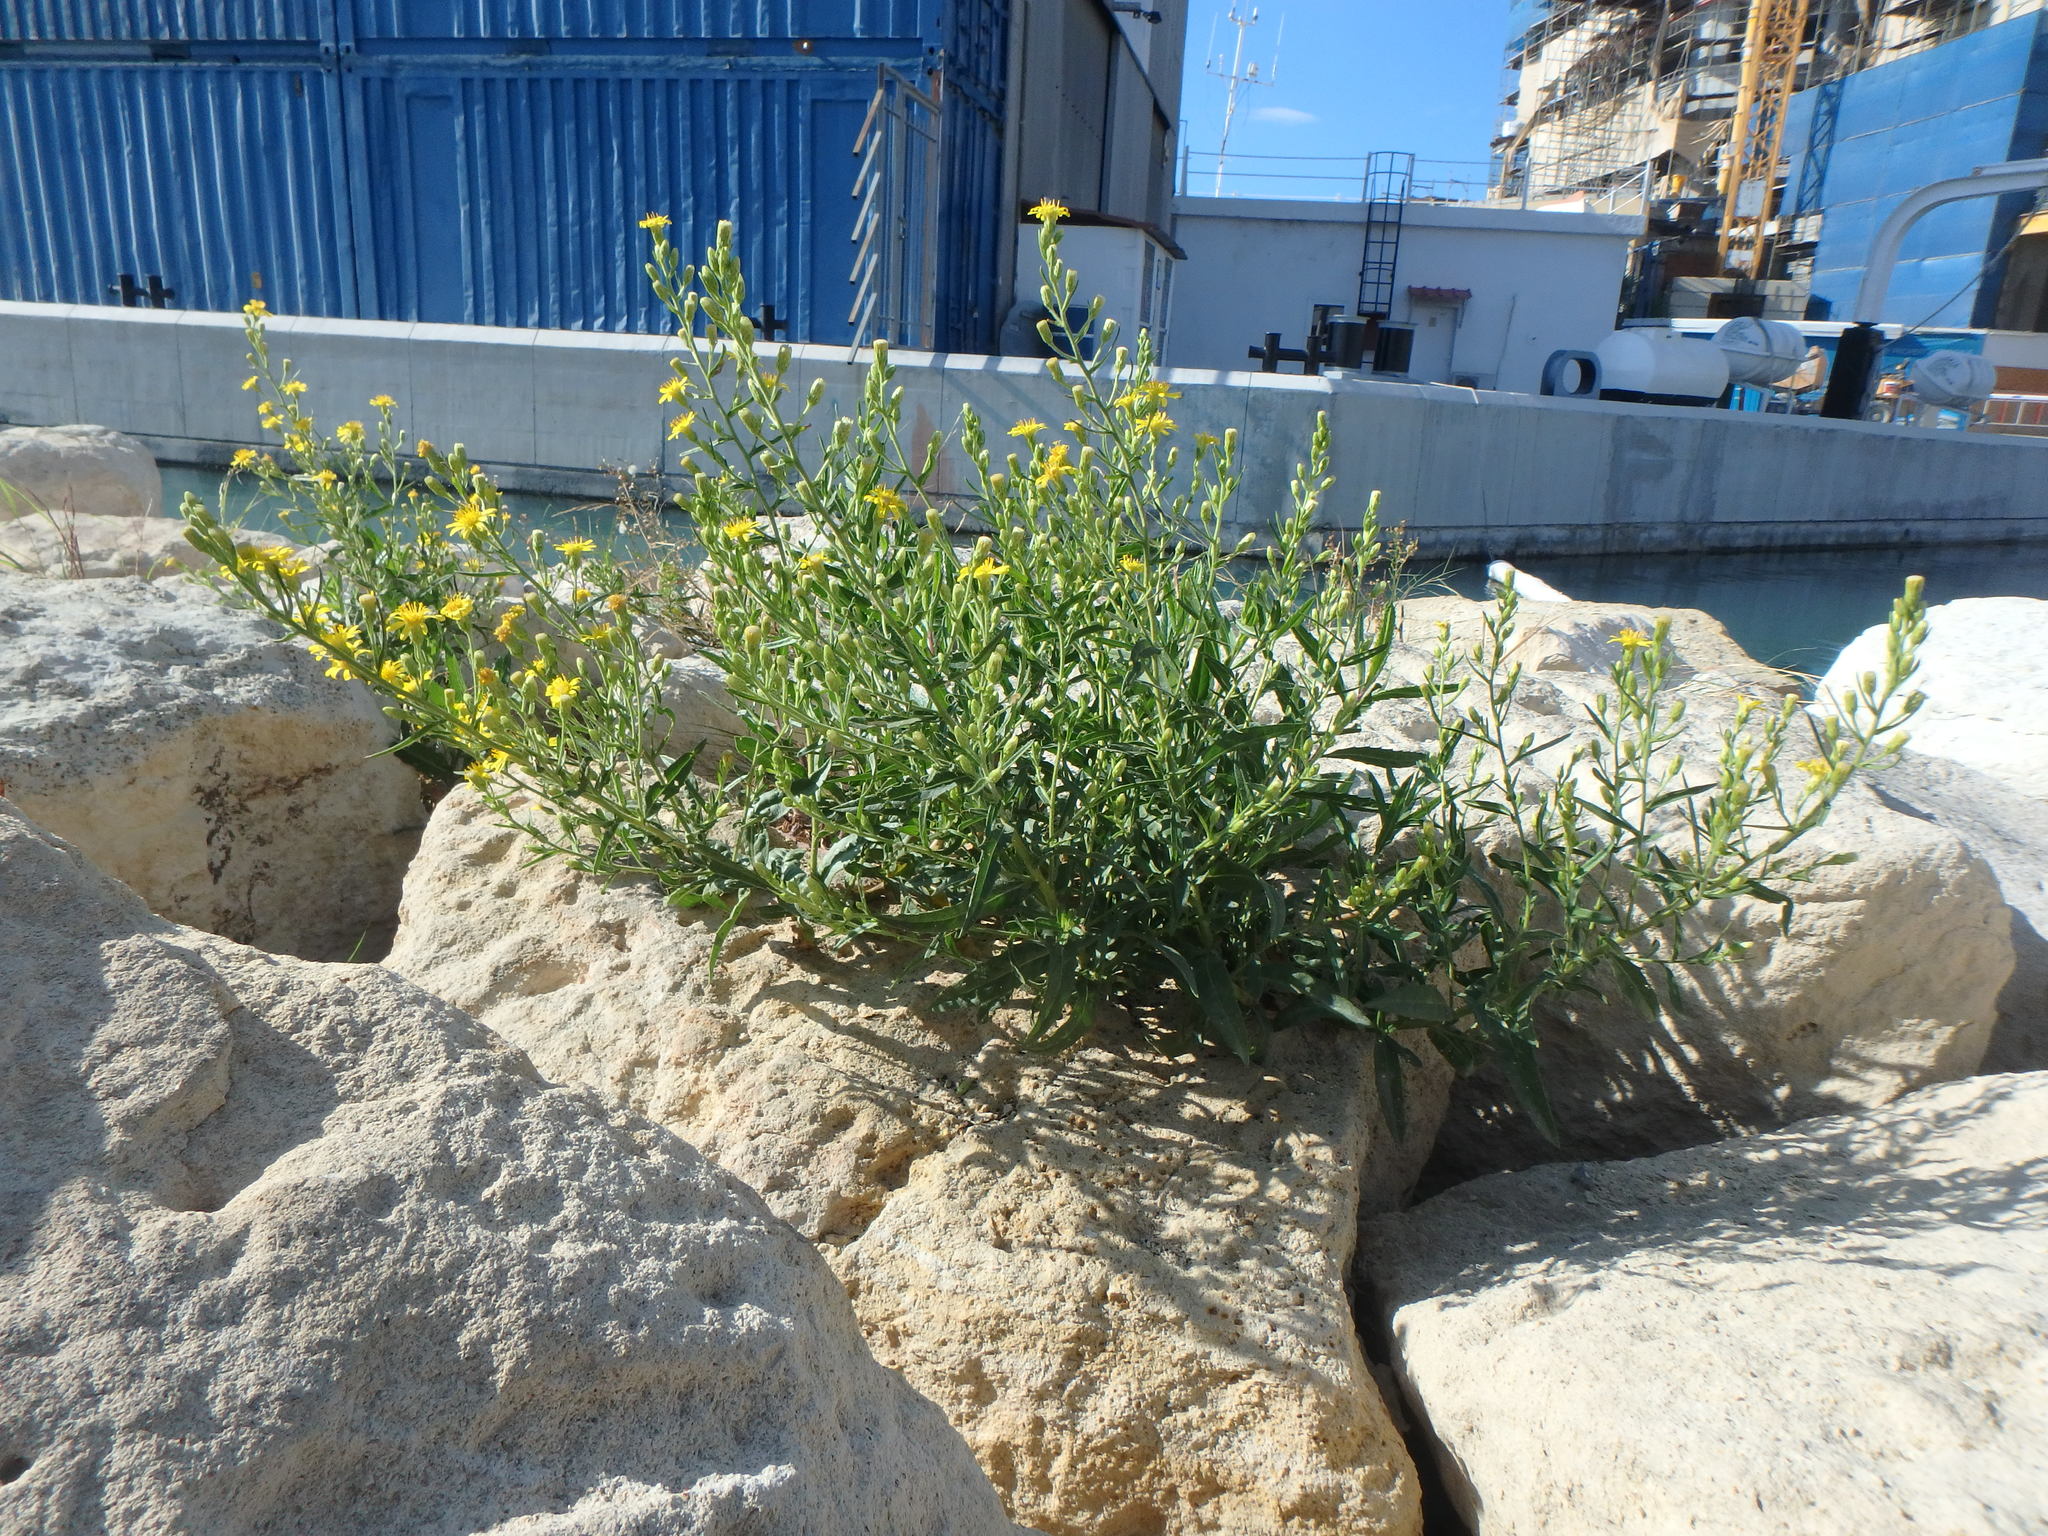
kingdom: Plantae
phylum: Tracheophyta
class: Magnoliopsida
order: Asterales
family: Asteraceae
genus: Dittrichia
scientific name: Dittrichia viscosa
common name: Woody fleabane
